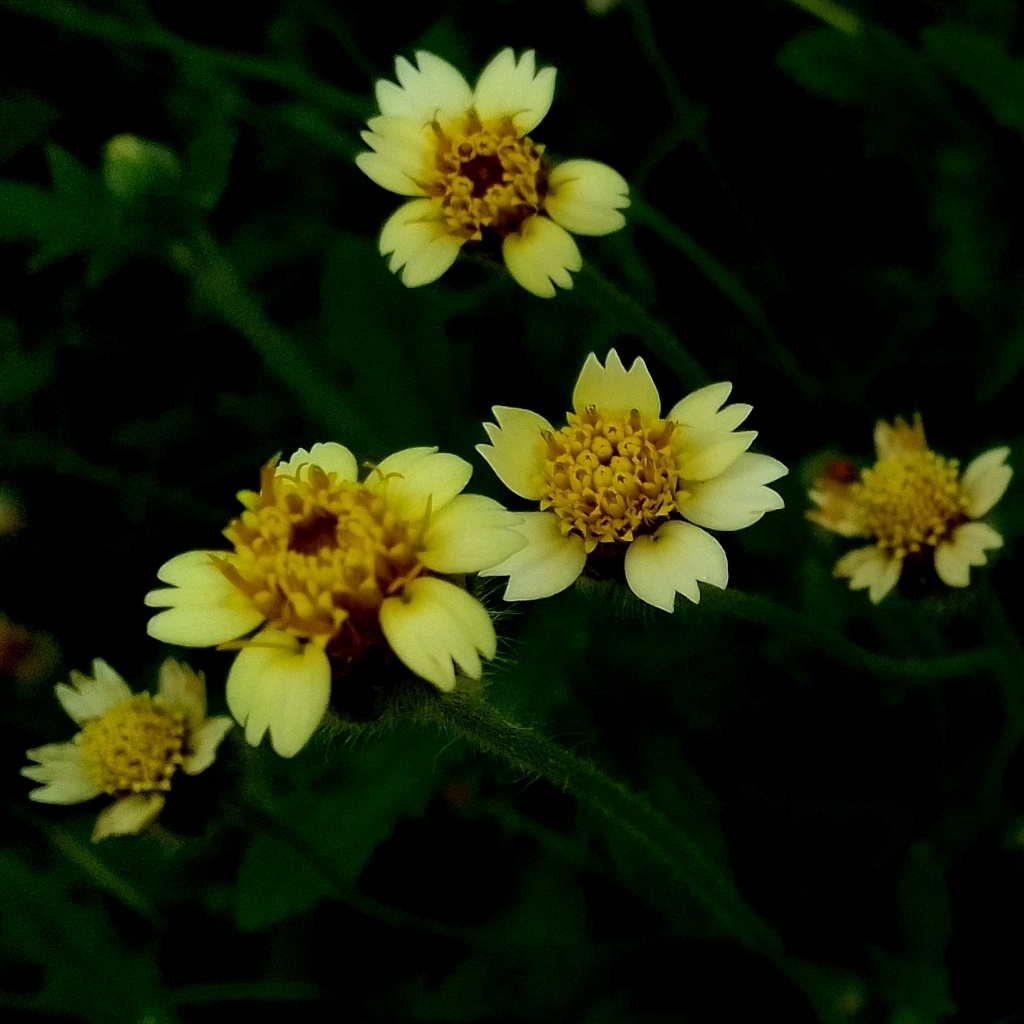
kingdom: Plantae
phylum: Tracheophyta
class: Magnoliopsida
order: Asterales
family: Asteraceae
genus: Tridax
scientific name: Tridax procumbens
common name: Coatbuttons
